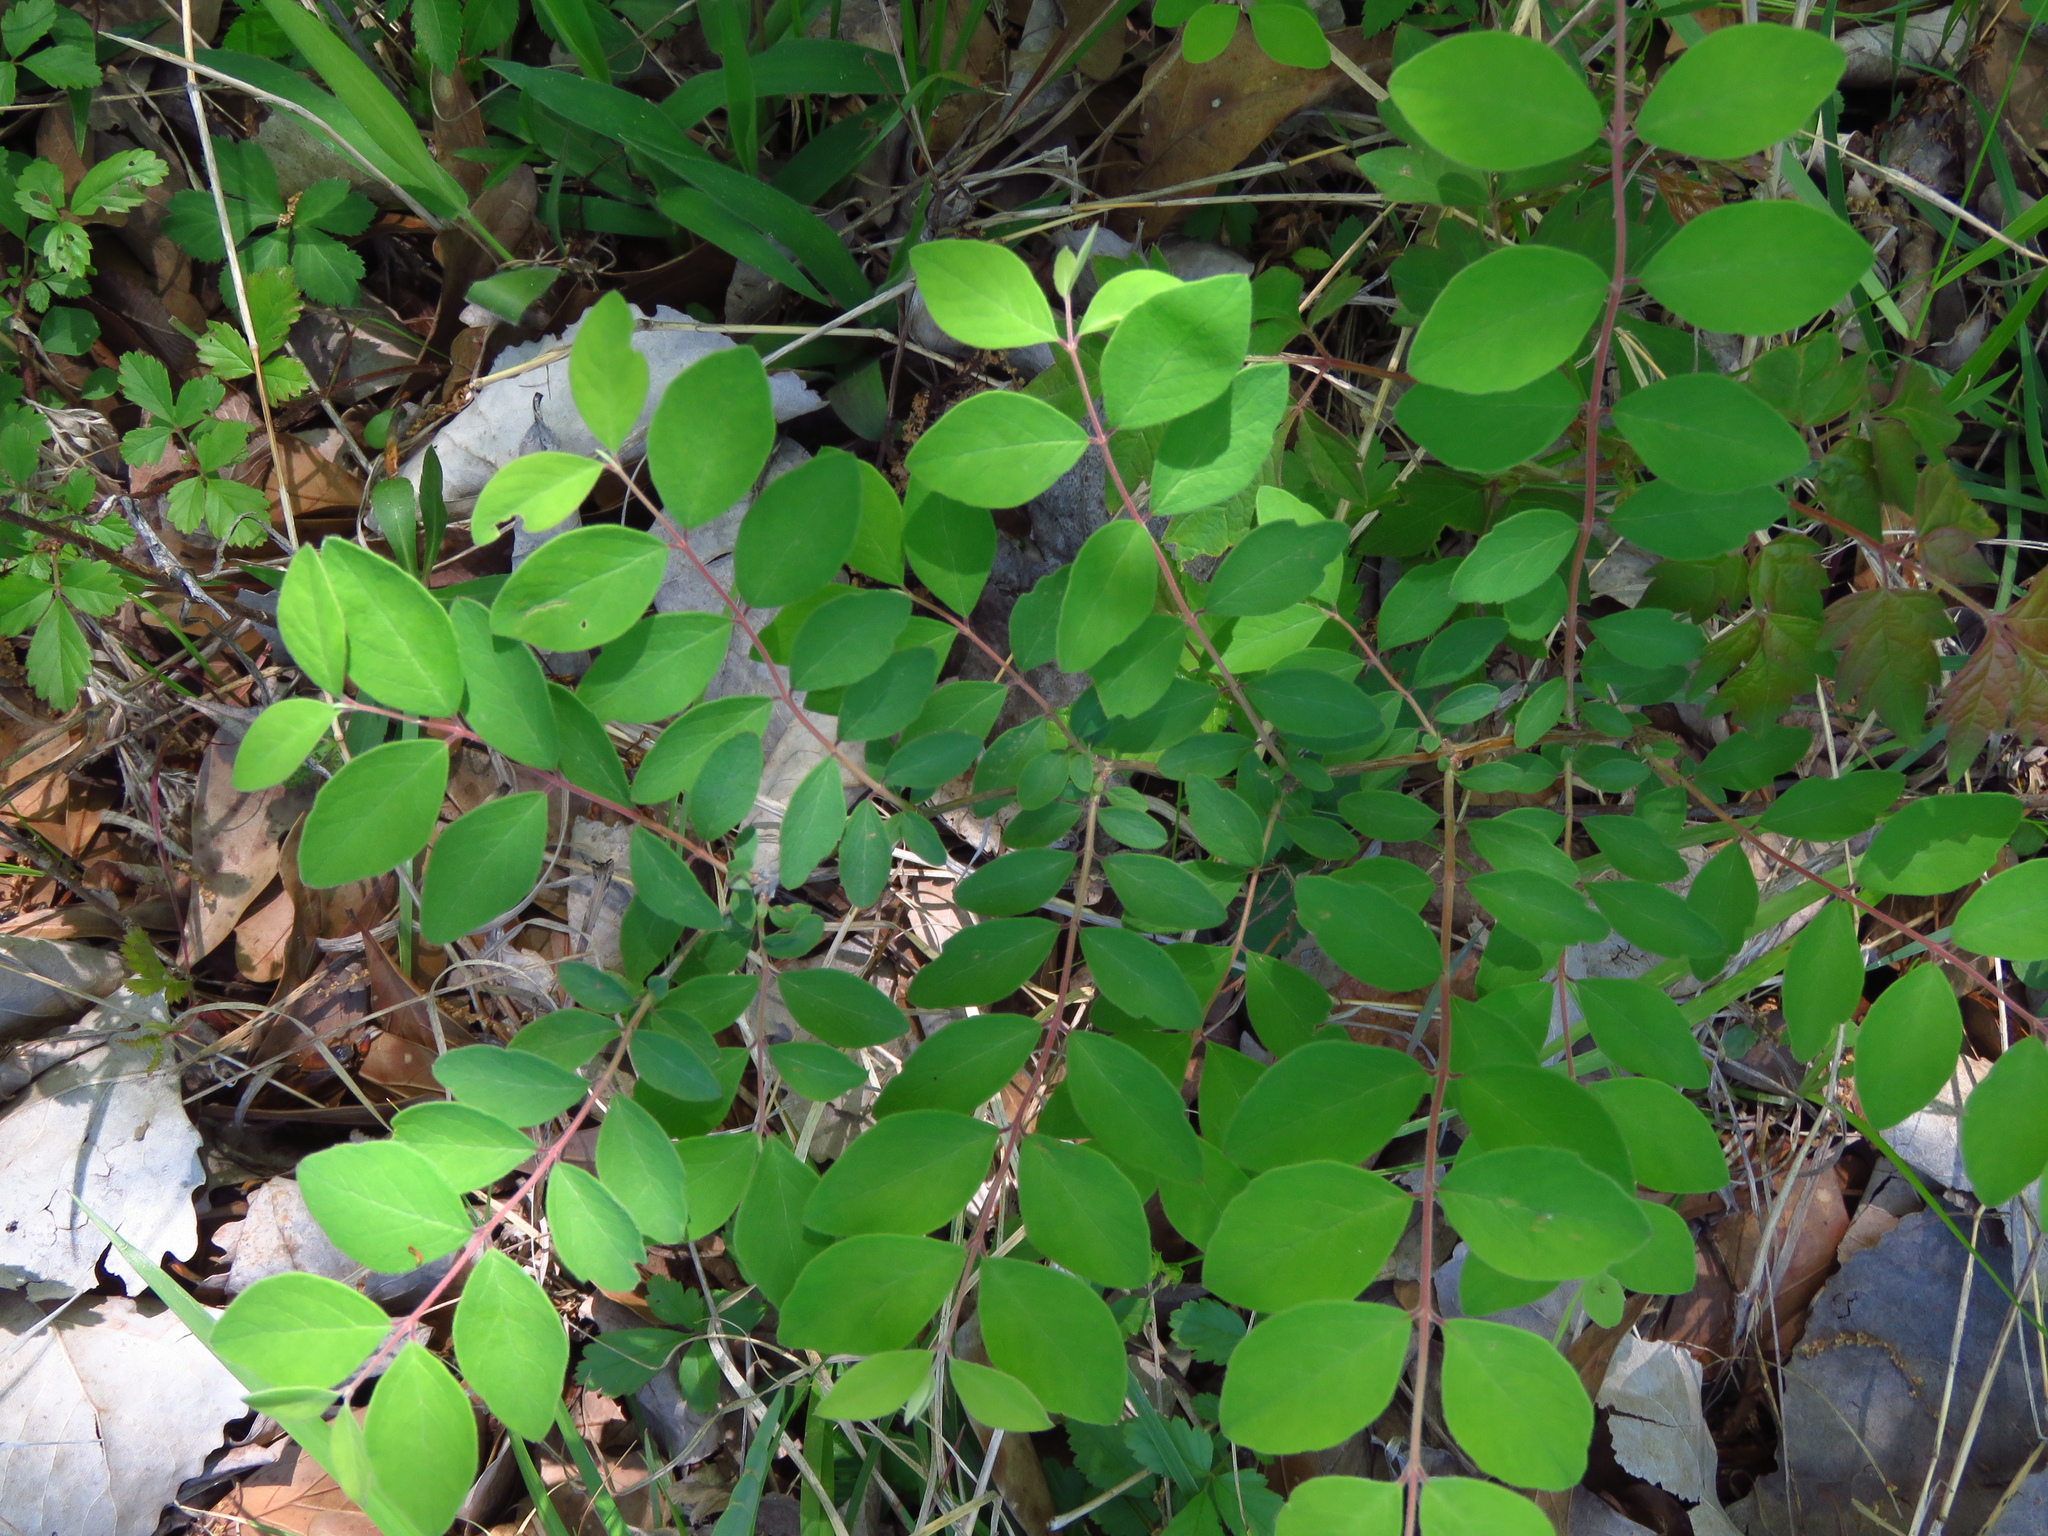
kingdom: Plantae
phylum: Tracheophyta
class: Magnoliopsida
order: Dipsacales
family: Caprifoliaceae
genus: Symphoricarpos
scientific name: Symphoricarpos orbiculatus
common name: Coralberry
